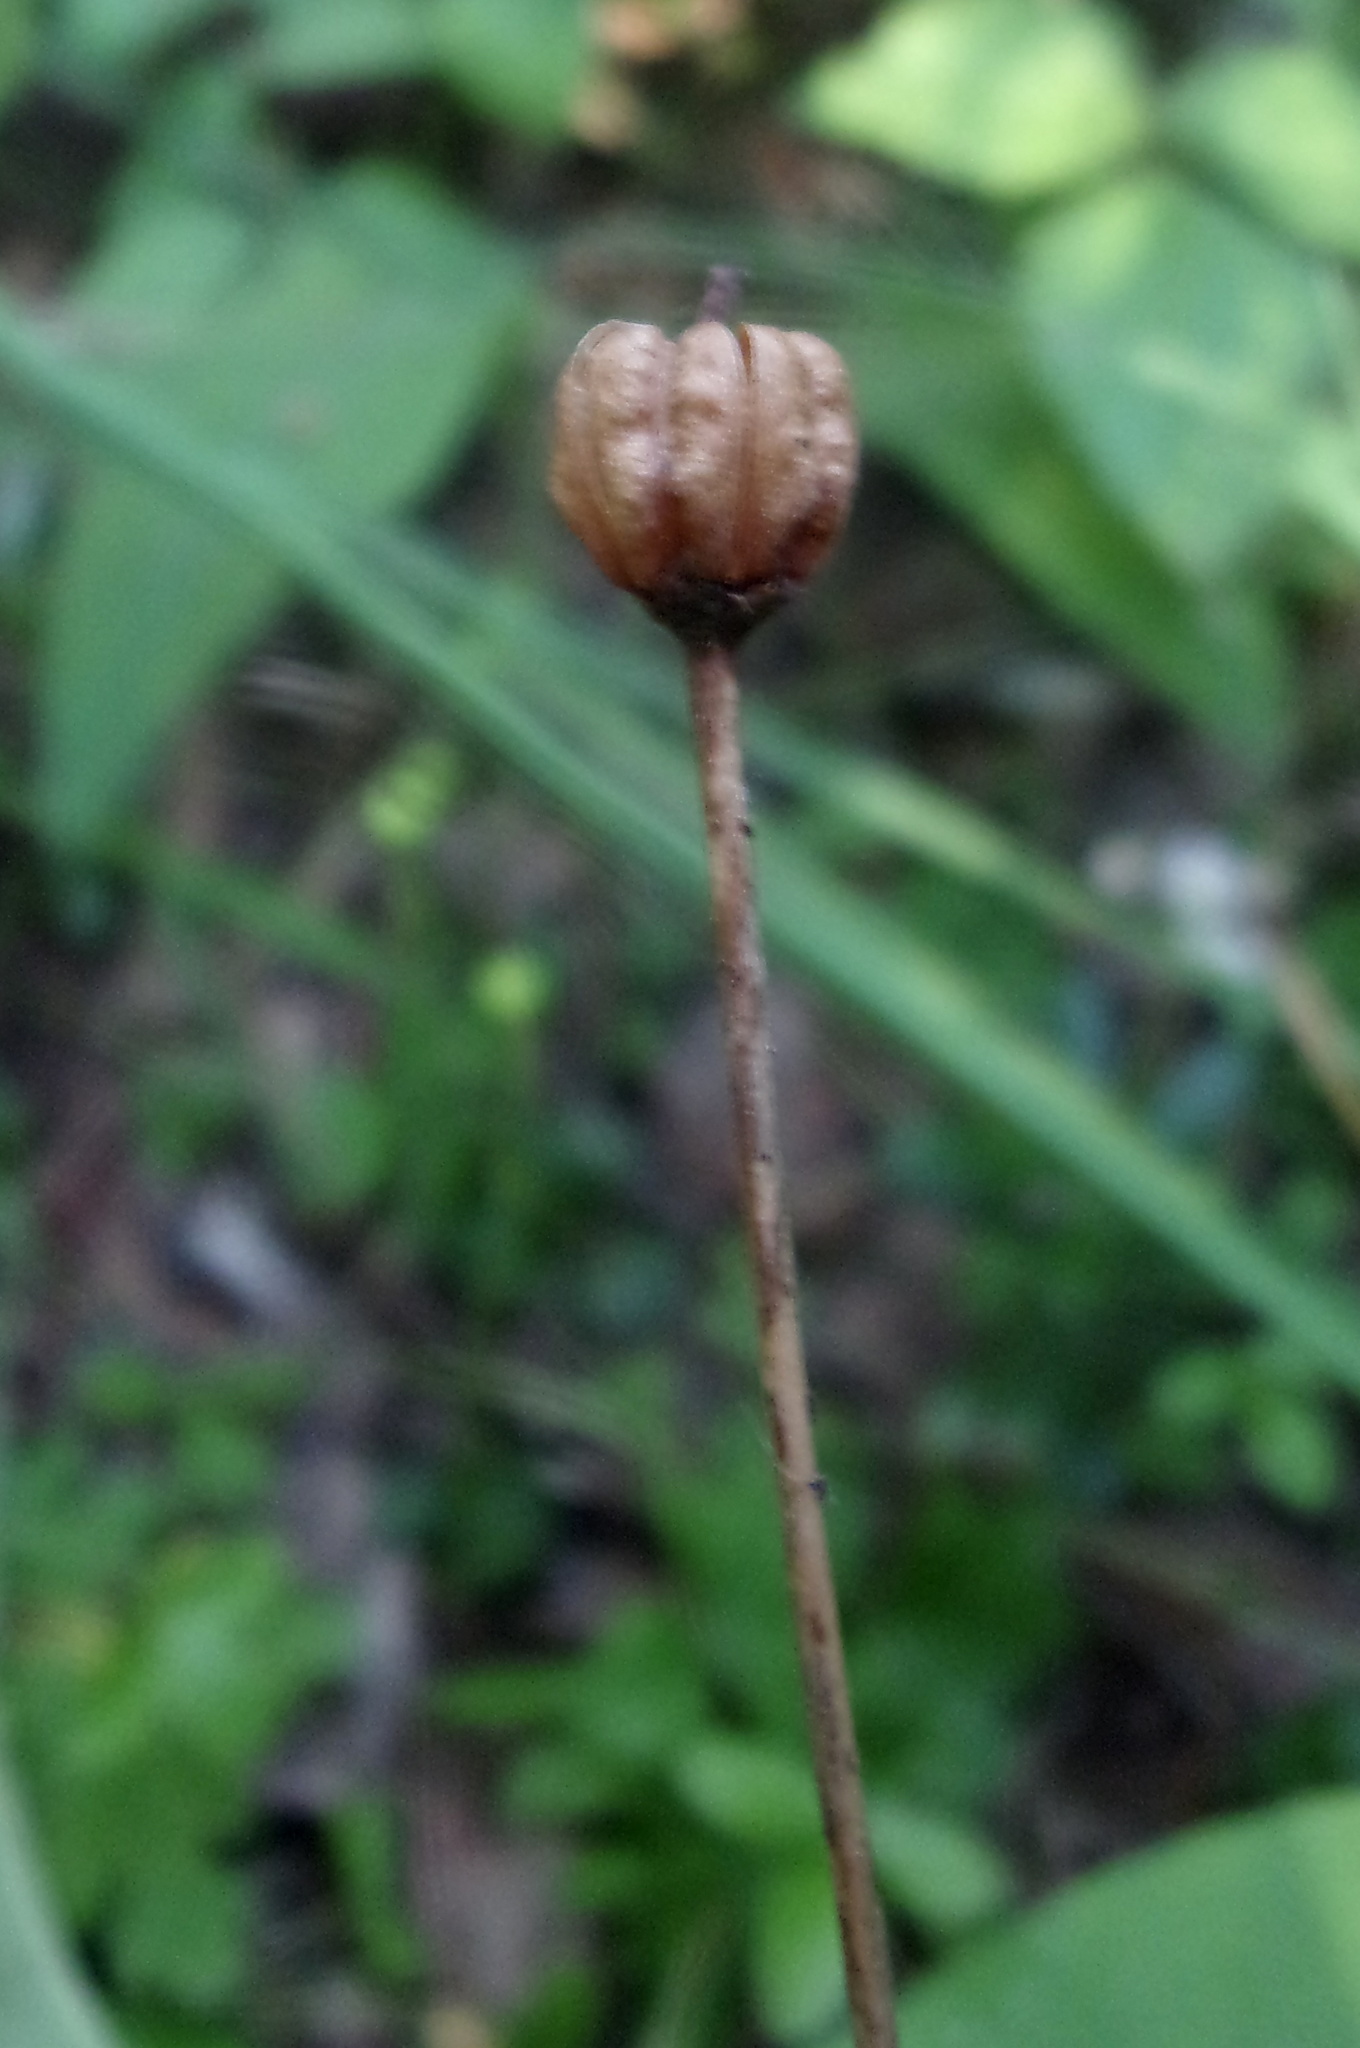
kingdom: Plantae
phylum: Tracheophyta
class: Magnoliopsida
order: Ericales
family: Ericaceae
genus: Moneses
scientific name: Moneses uniflora
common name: One-flowered wintergreen
